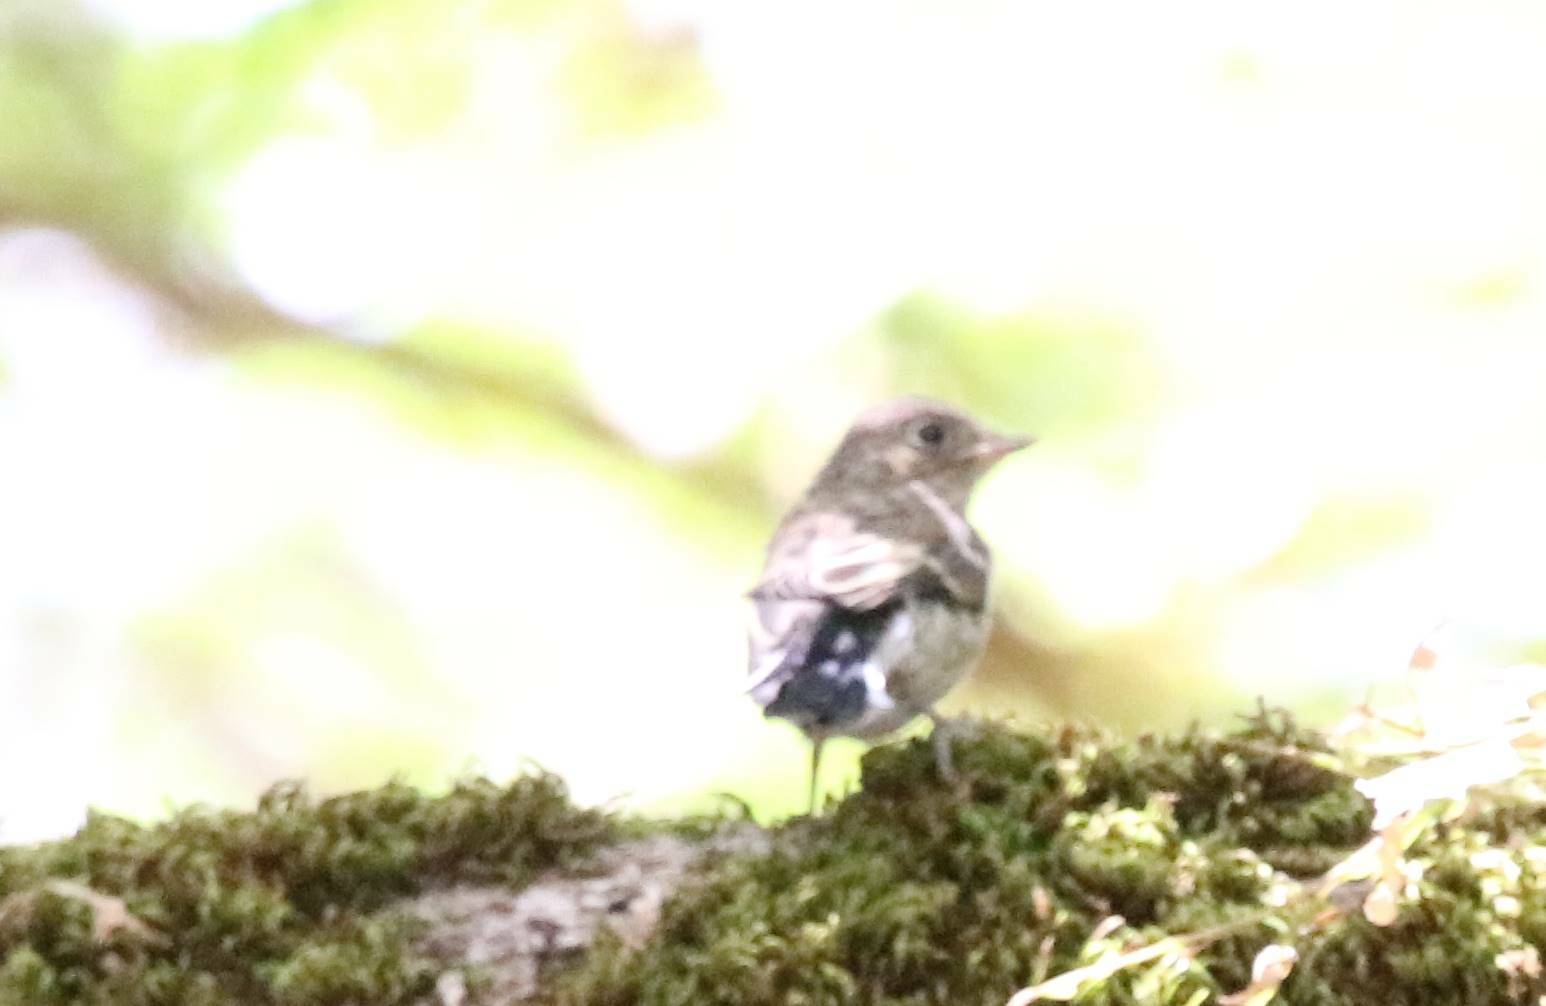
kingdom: Animalia
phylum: Chordata
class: Aves
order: Passeriformes
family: Muscicapidae
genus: Ficedula
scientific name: Ficedula speculigera
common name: Atlas pied flycatcher
